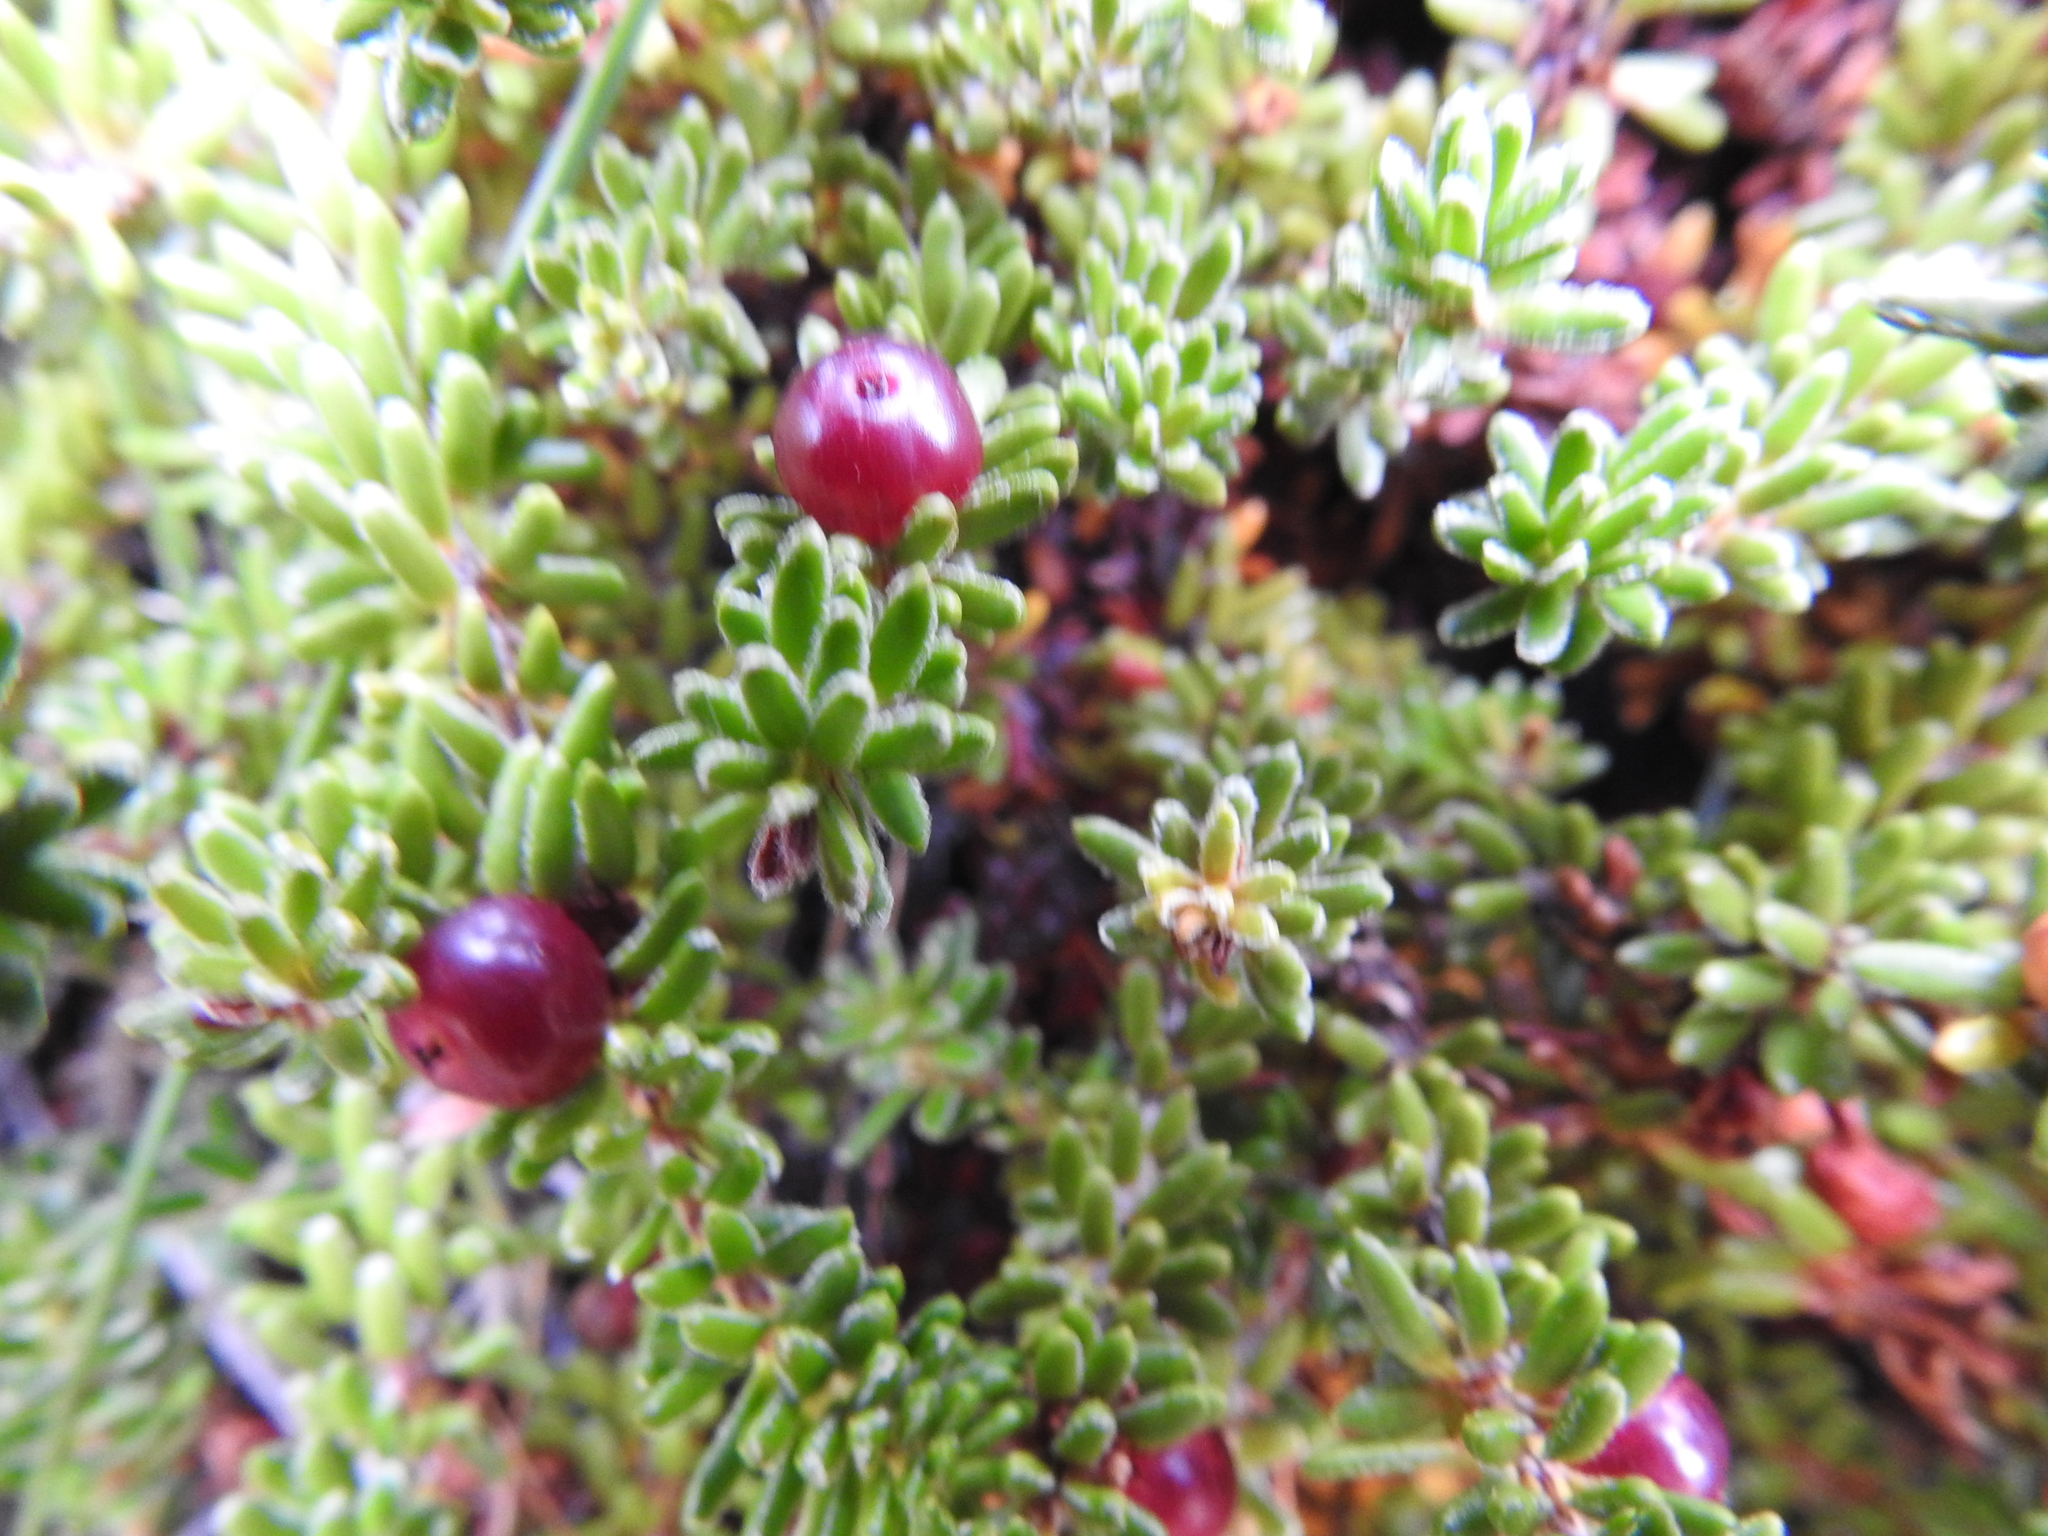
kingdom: Plantae
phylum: Tracheophyta
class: Magnoliopsida
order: Ericales
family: Ericaceae
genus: Empetrum
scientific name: Empetrum rubrum
